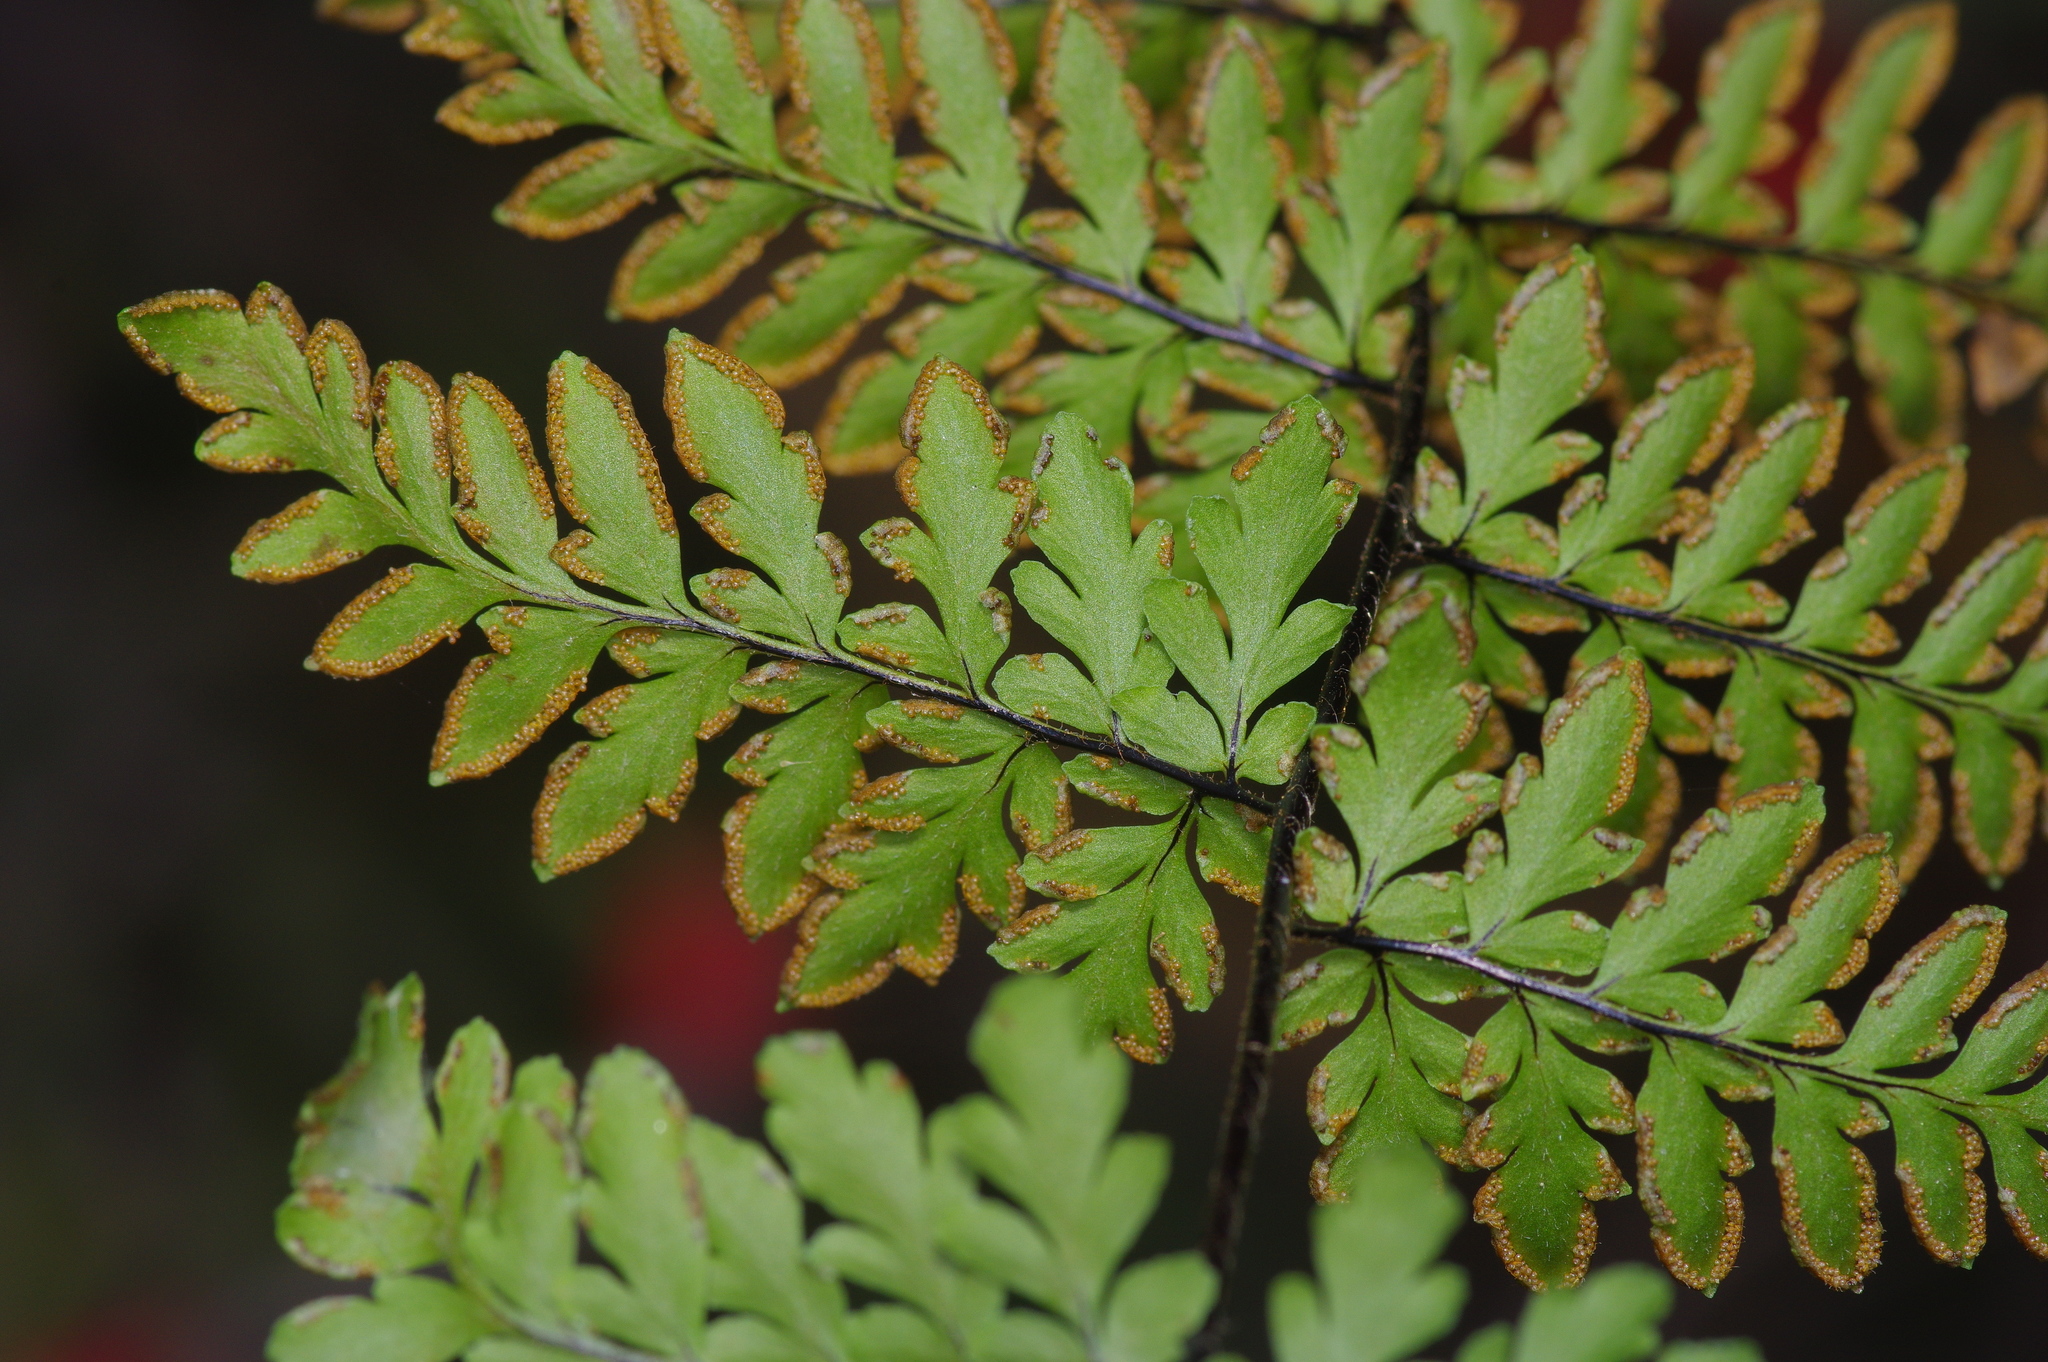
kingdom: Plantae
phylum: Tracheophyta
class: Polypodiopsida
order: Polypodiales
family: Pteridaceae
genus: Myriopteris
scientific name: Myriopteris alabamensis
